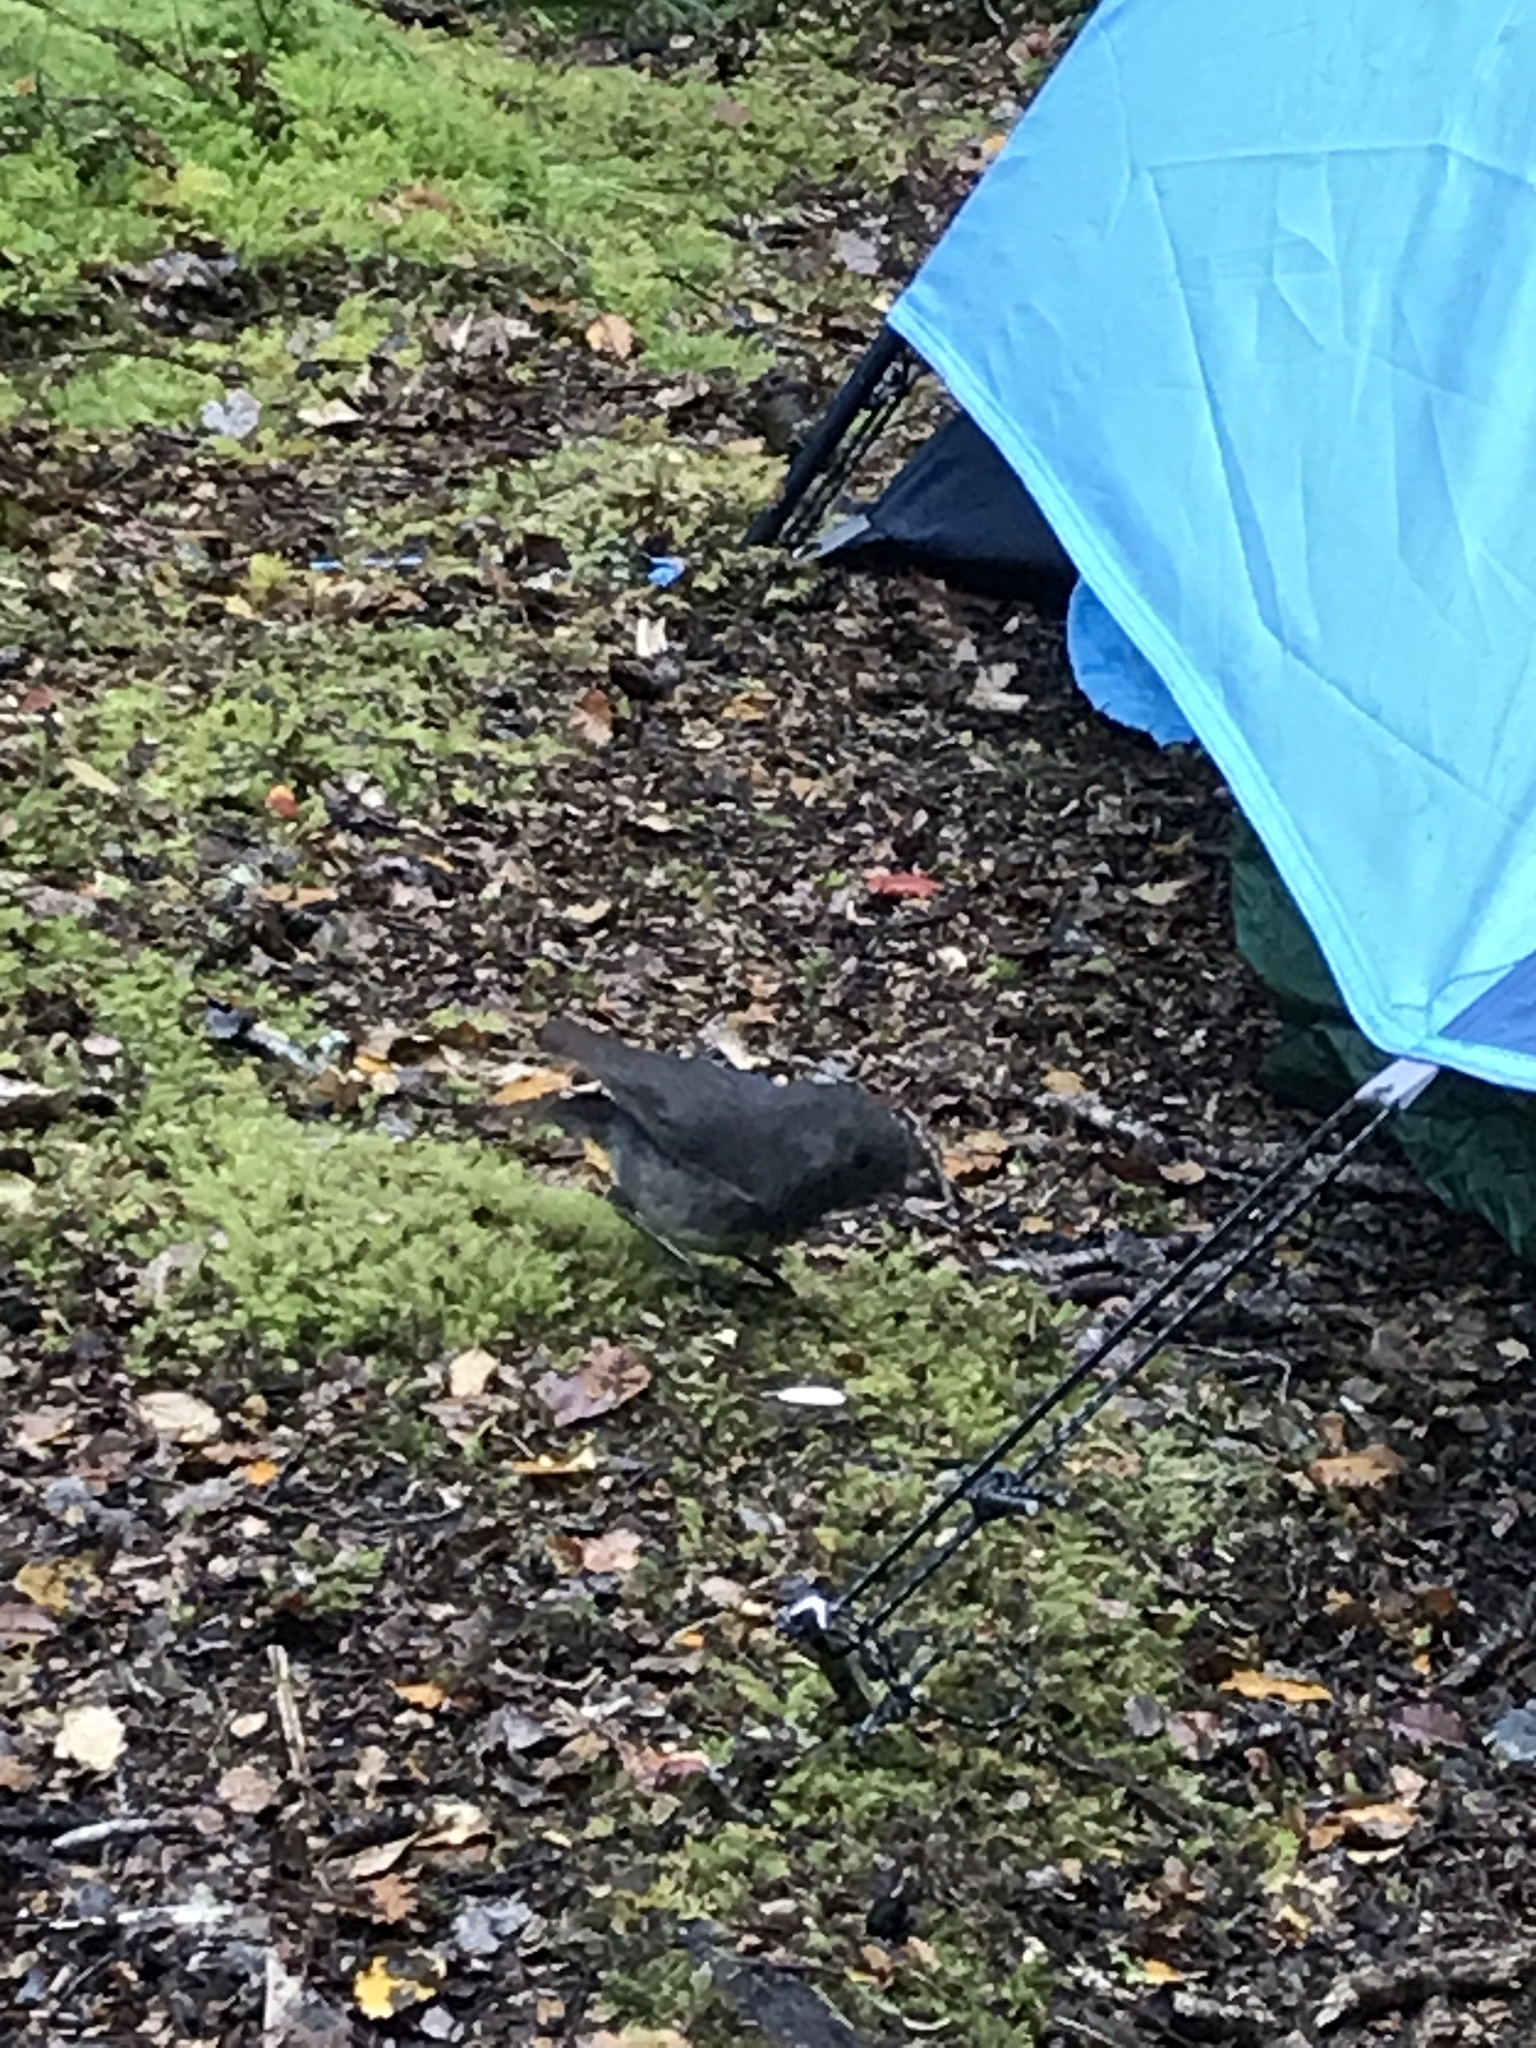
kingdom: Animalia
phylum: Chordata
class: Aves
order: Passeriformes
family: Petroicidae
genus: Petroica
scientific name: Petroica australis
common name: New zealand robin
